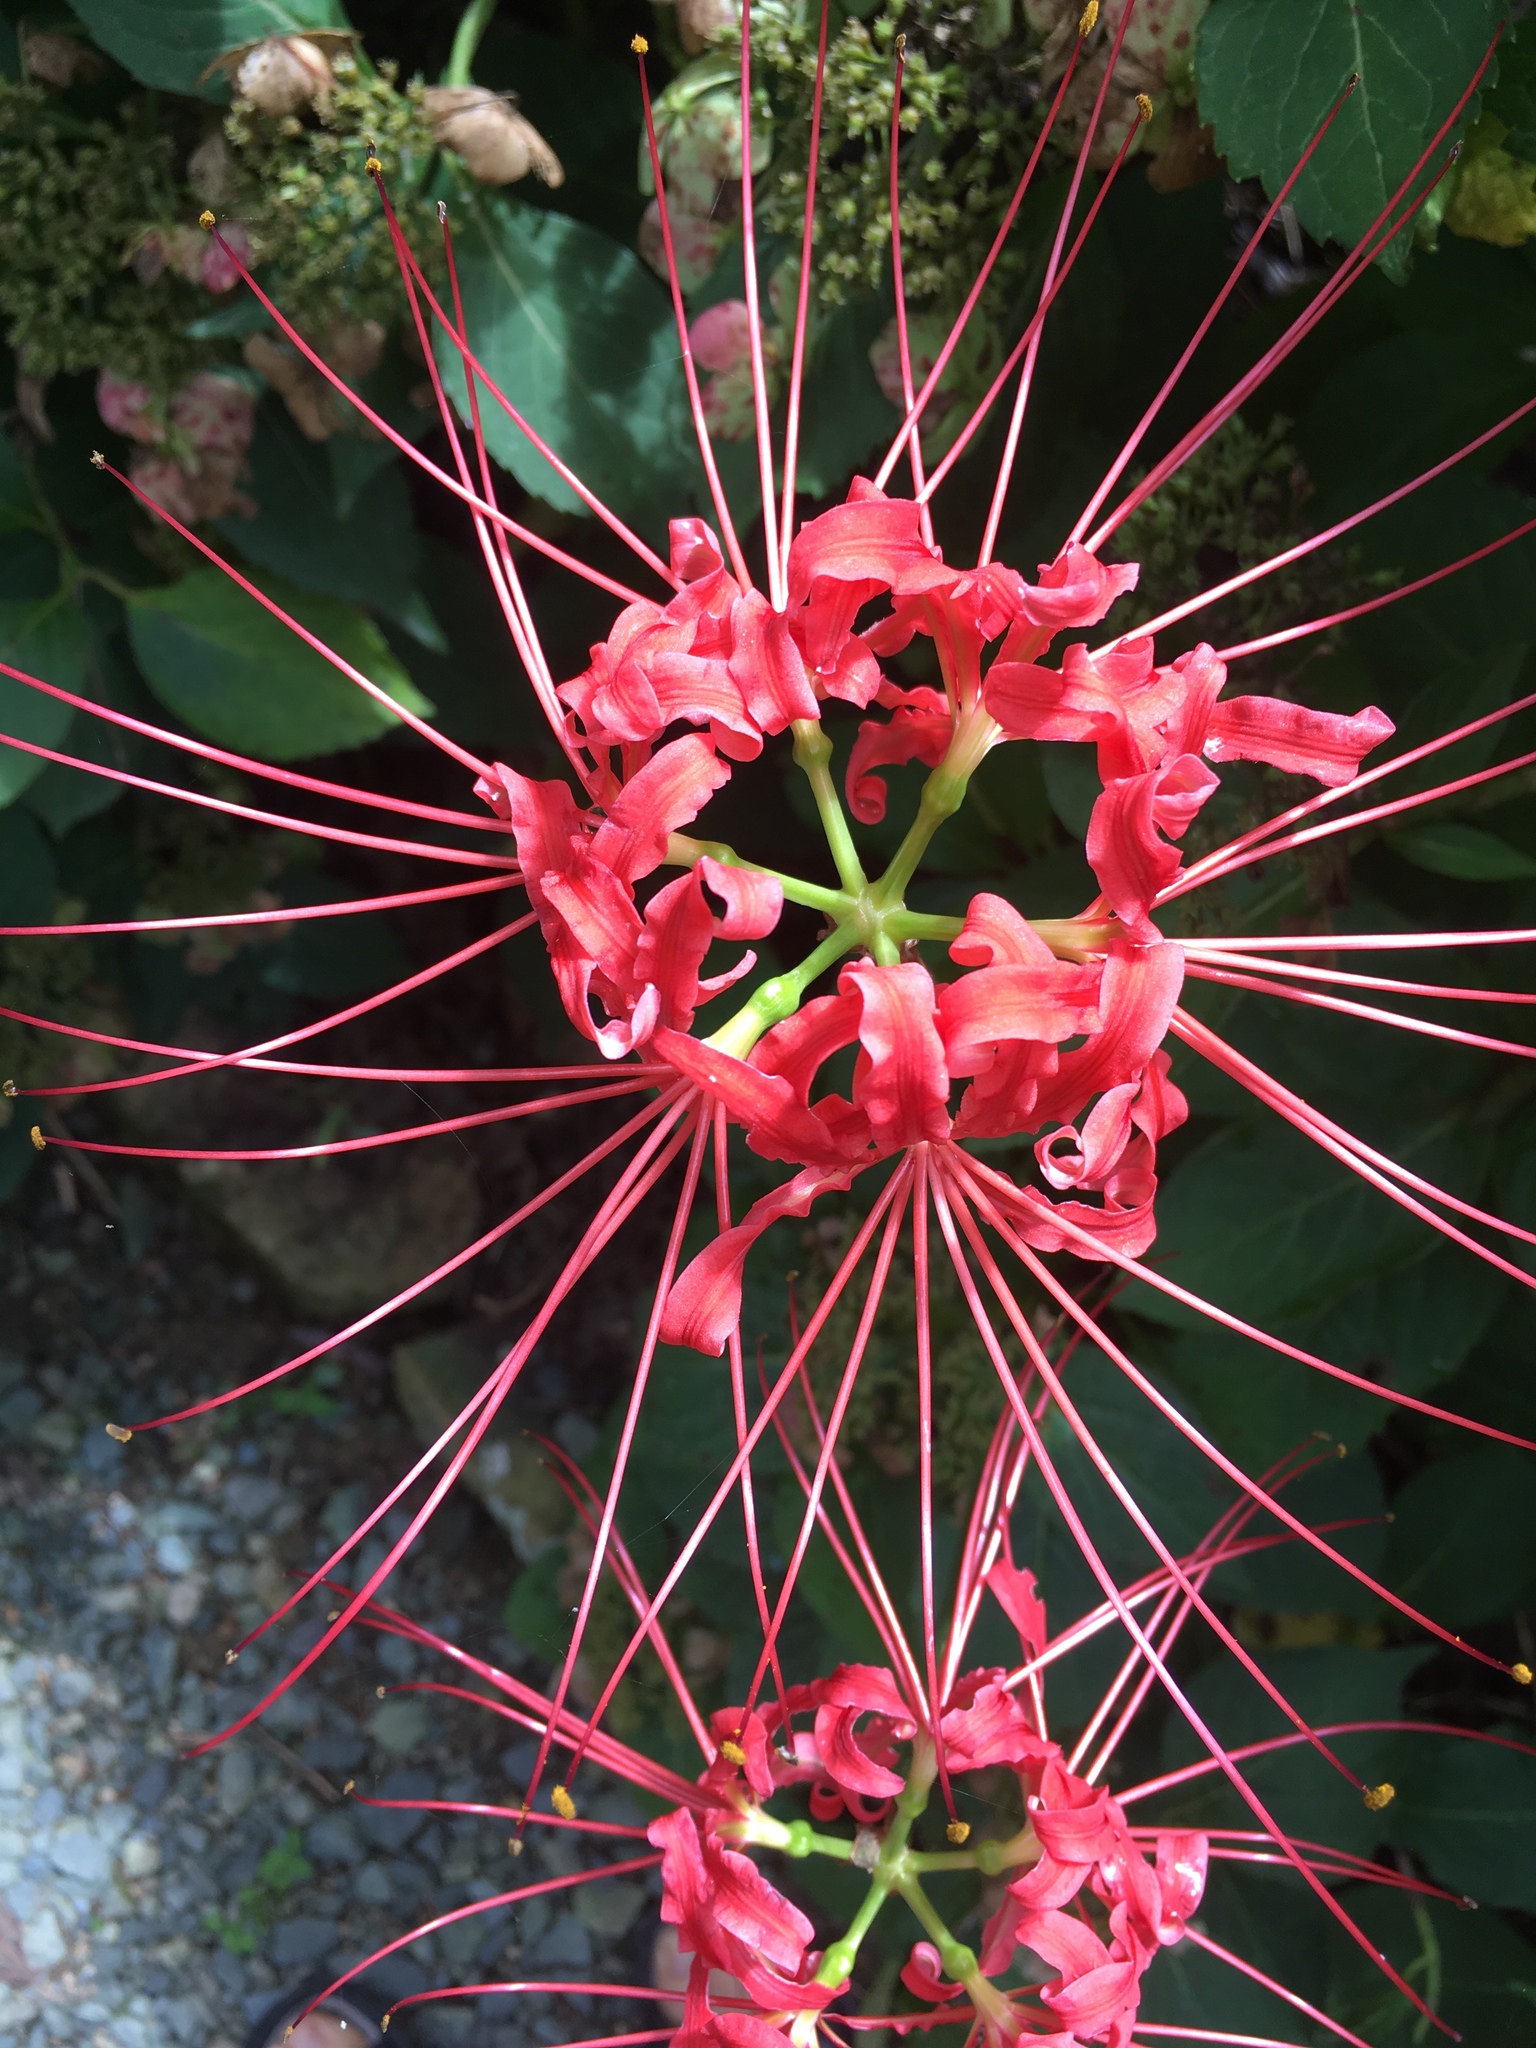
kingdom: Plantae
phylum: Tracheophyta
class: Liliopsida
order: Asparagales
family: Amaryllidaceae
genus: Lycoris
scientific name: Lycoris radiata
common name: Red spider lily
